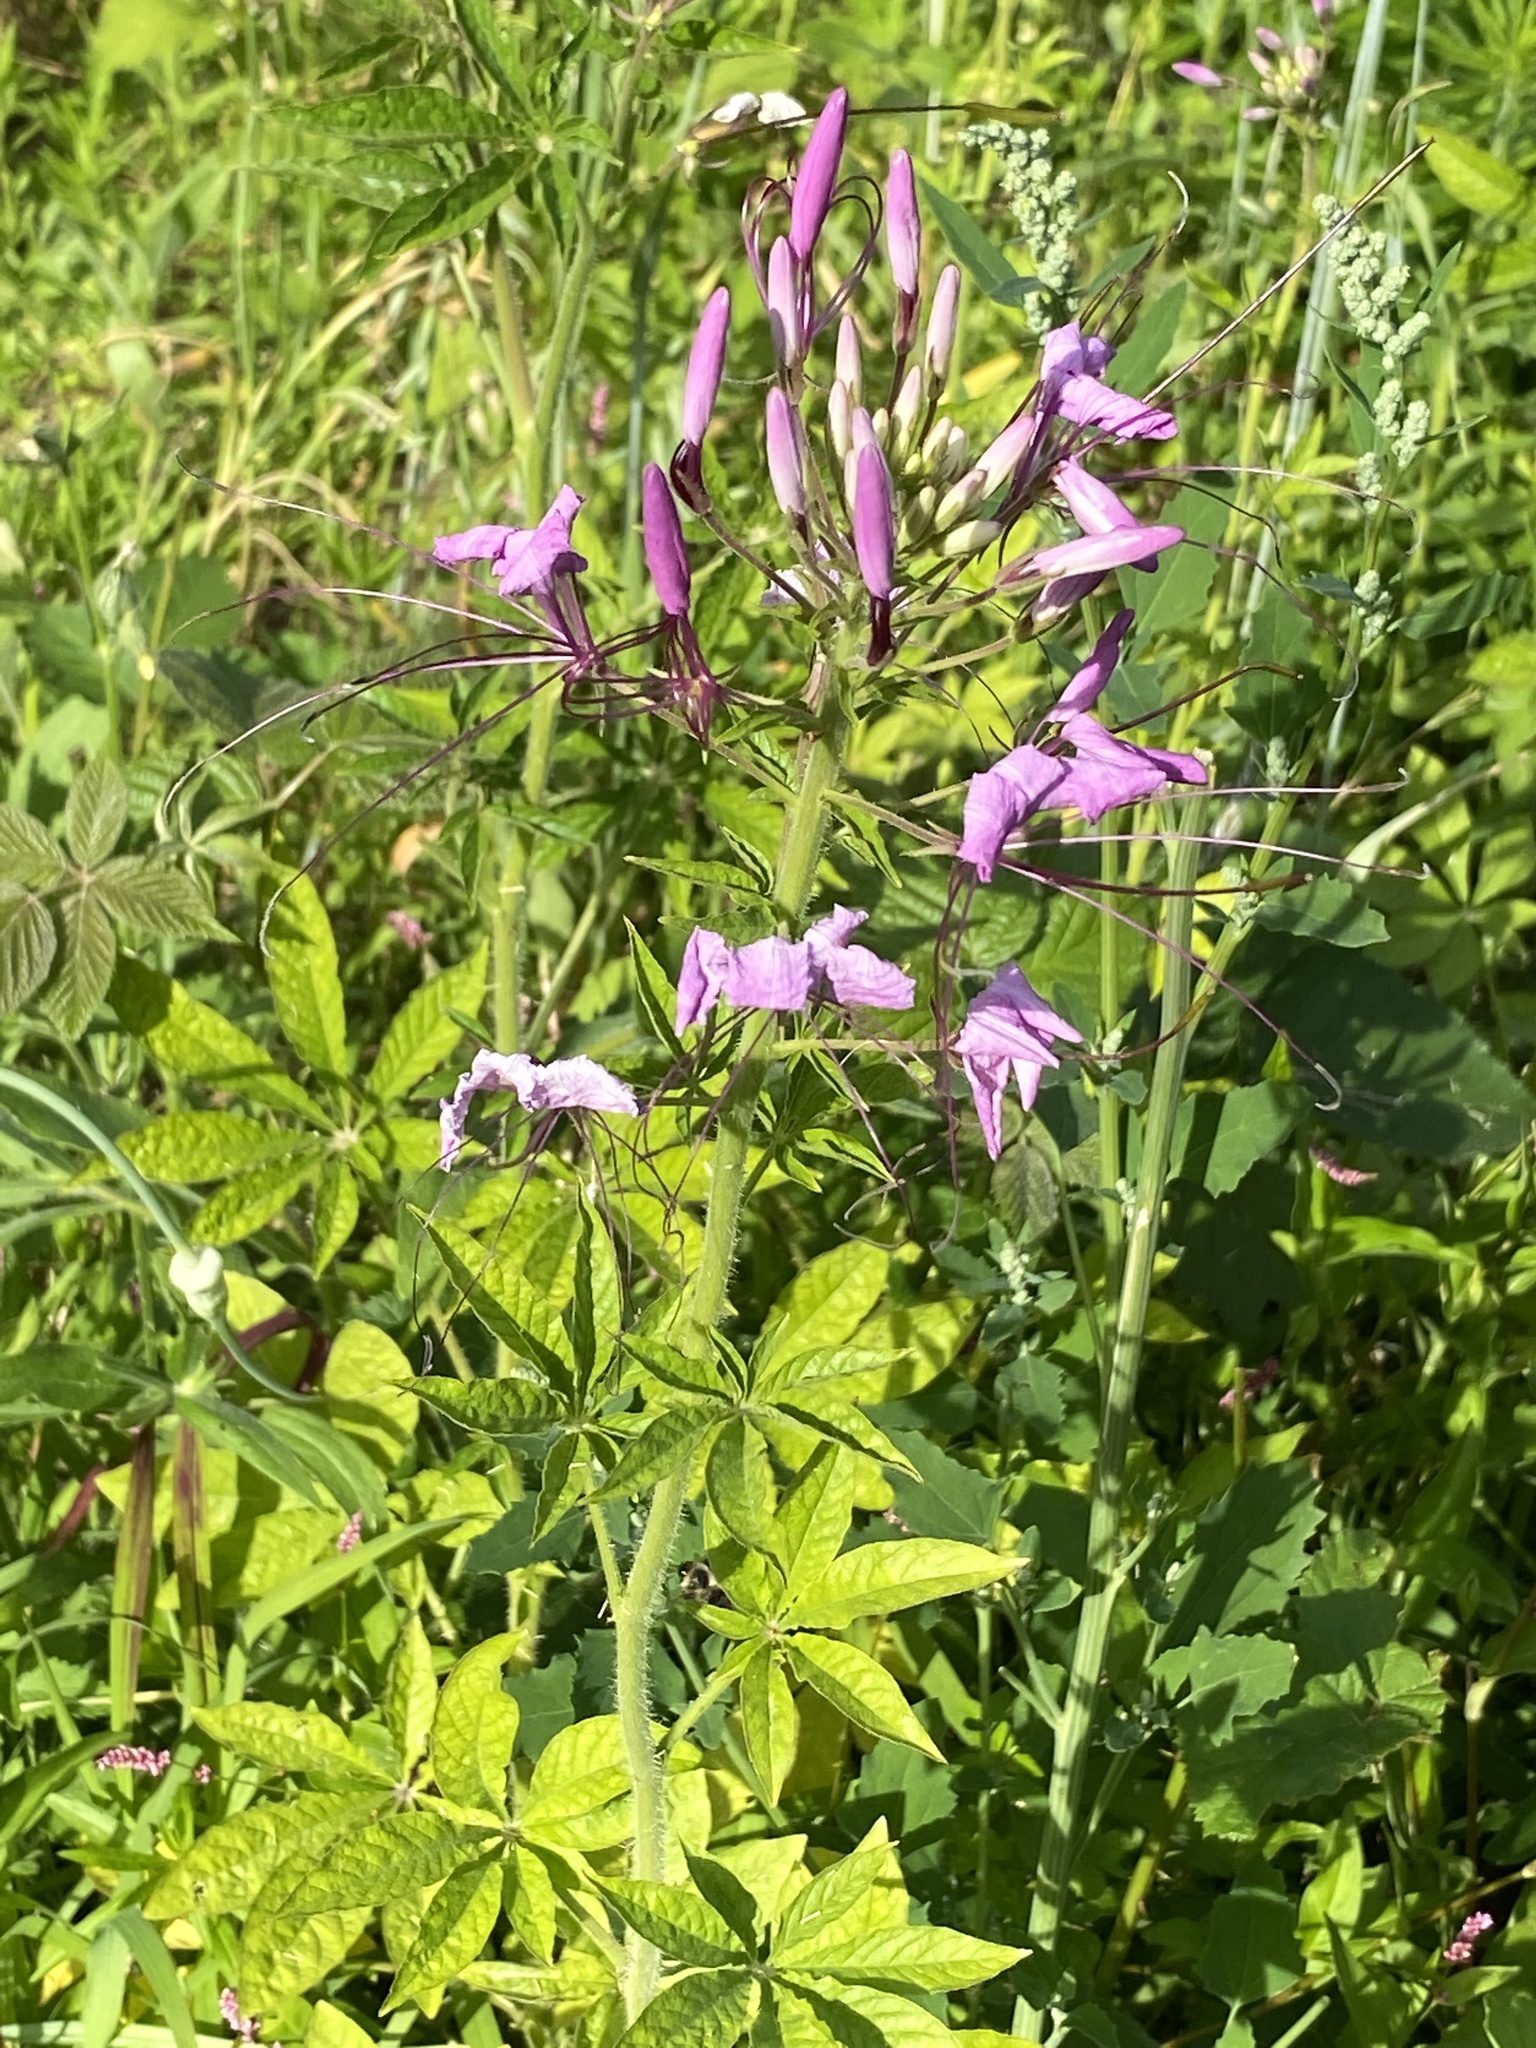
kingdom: Plantae
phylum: Tracheophyta
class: Magnoliopsida
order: Brassicales
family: Cleomaceae
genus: Tarenaya
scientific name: Tarenaya houtteana
